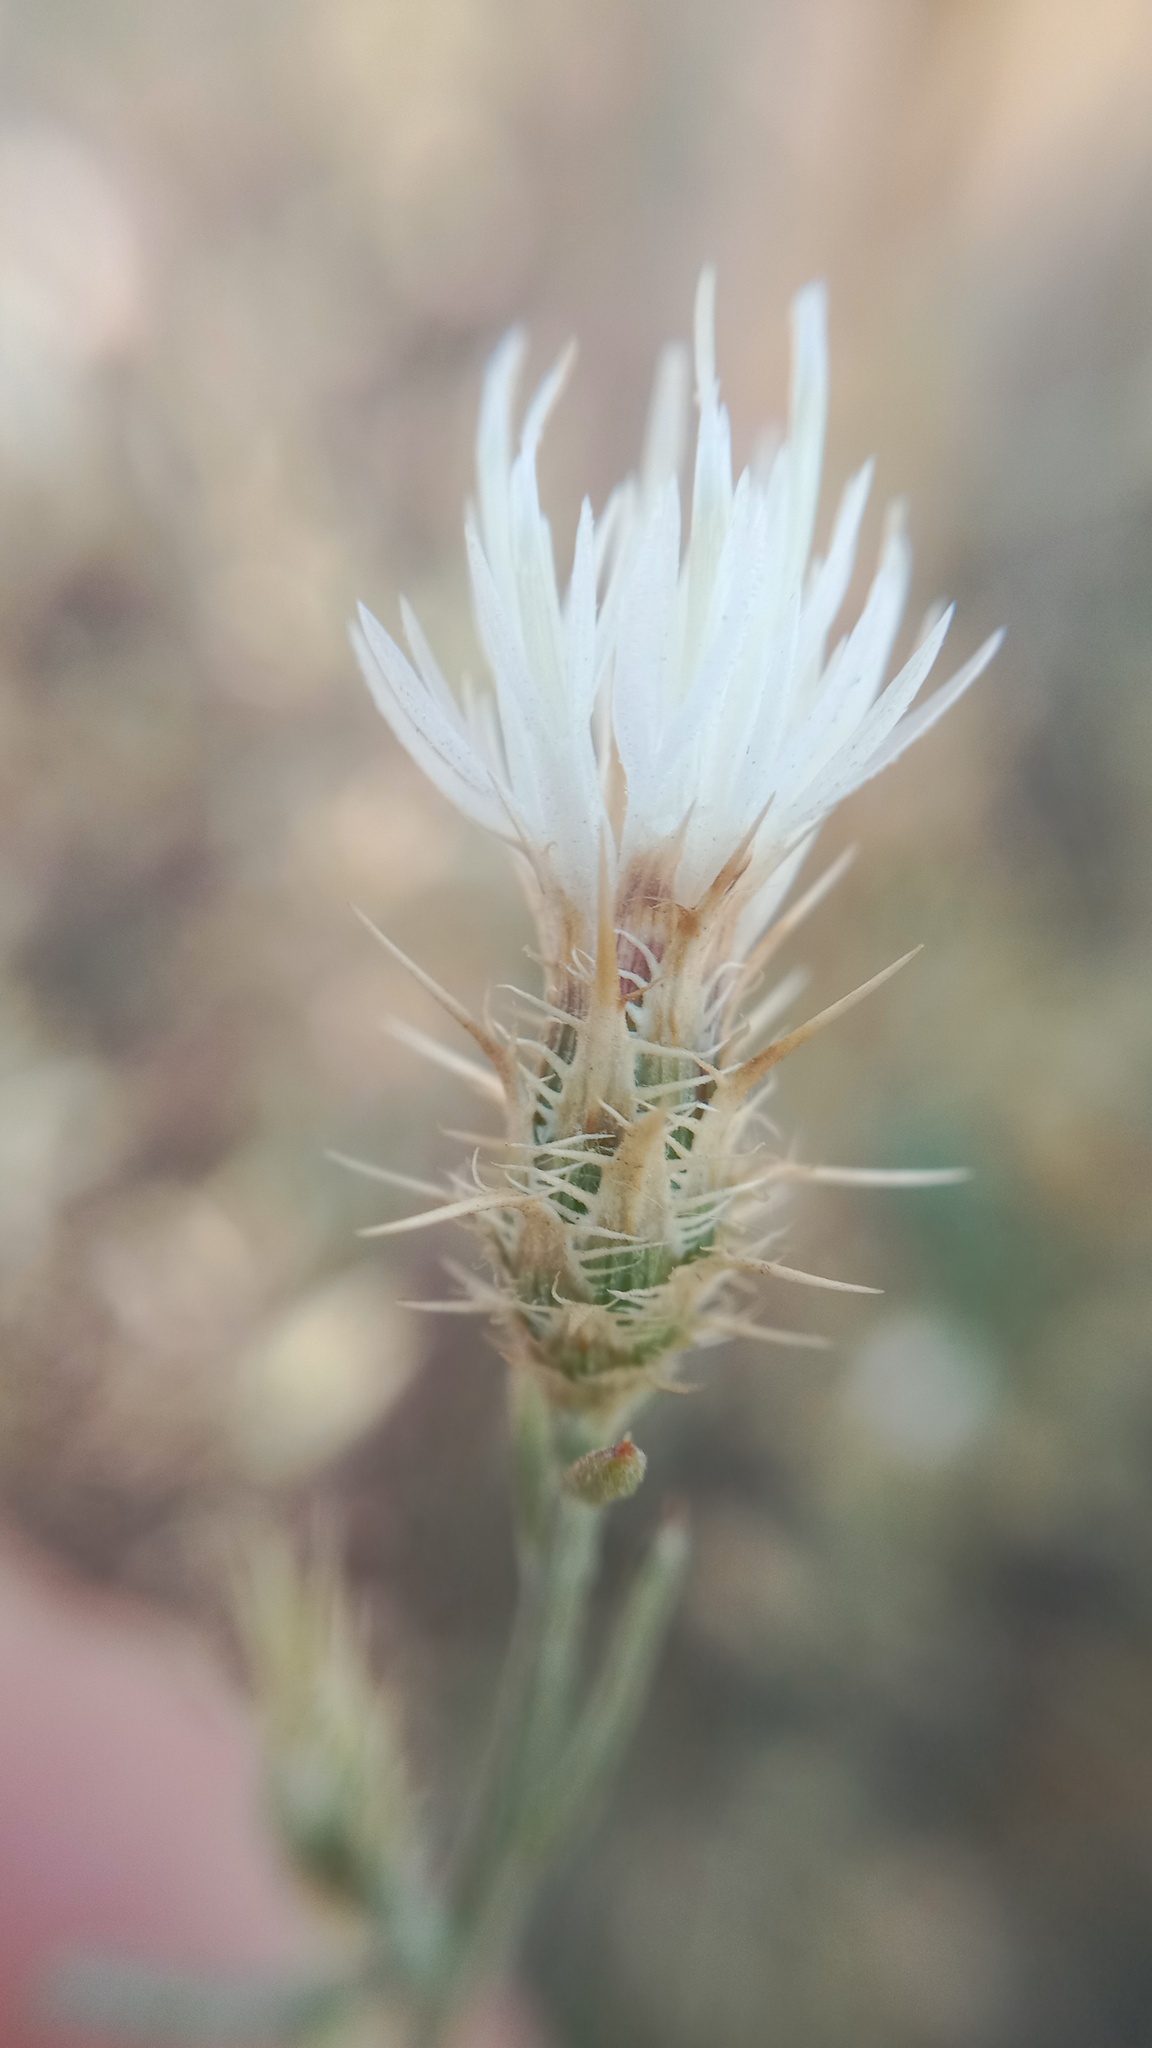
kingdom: Plantae
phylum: Tracheophyta
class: Magnoliopsida
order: Asterales
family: Asteraceae
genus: Centaurea
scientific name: Centaurea diffusa
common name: Diffuse knapweed
